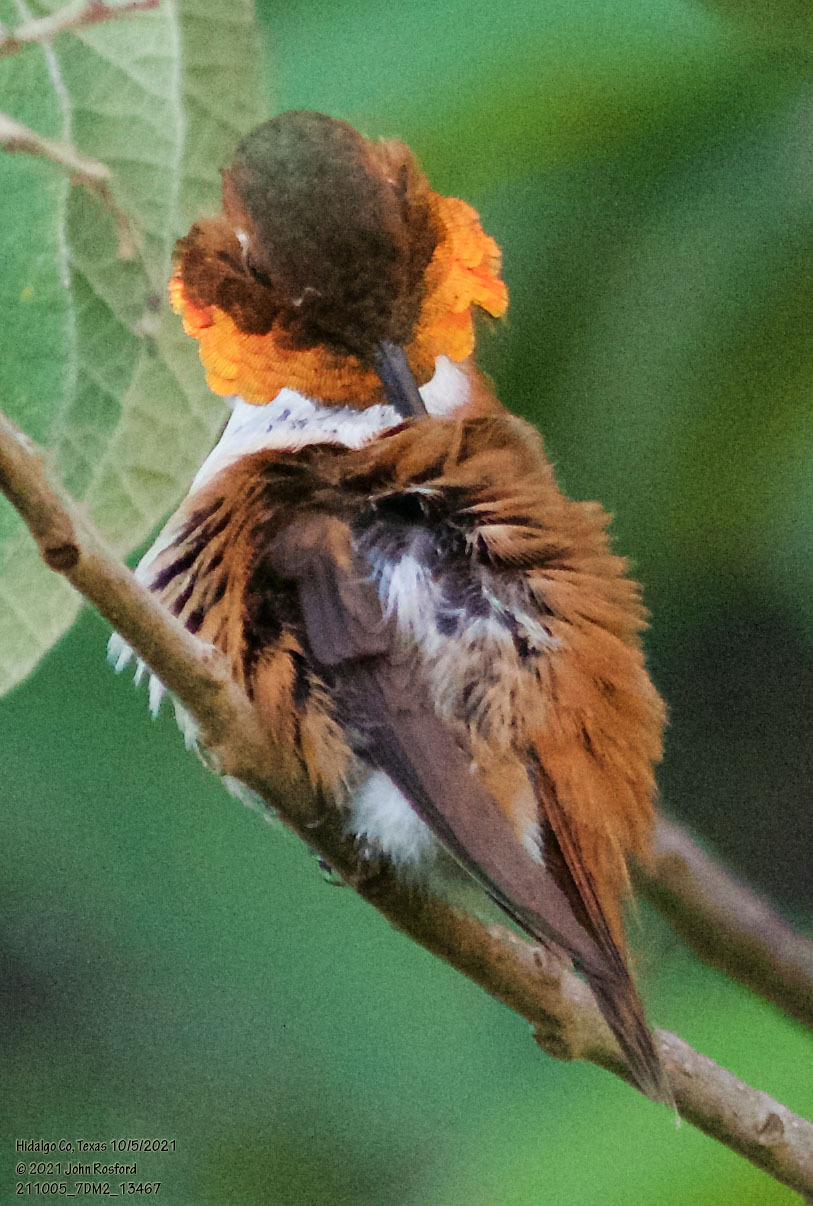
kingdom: Animalia
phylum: Chordata
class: Aves
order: Apodiformes
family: Trochilidae
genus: Selasphorus
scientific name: Selasphorus rufus
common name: Rufous hummingbird
